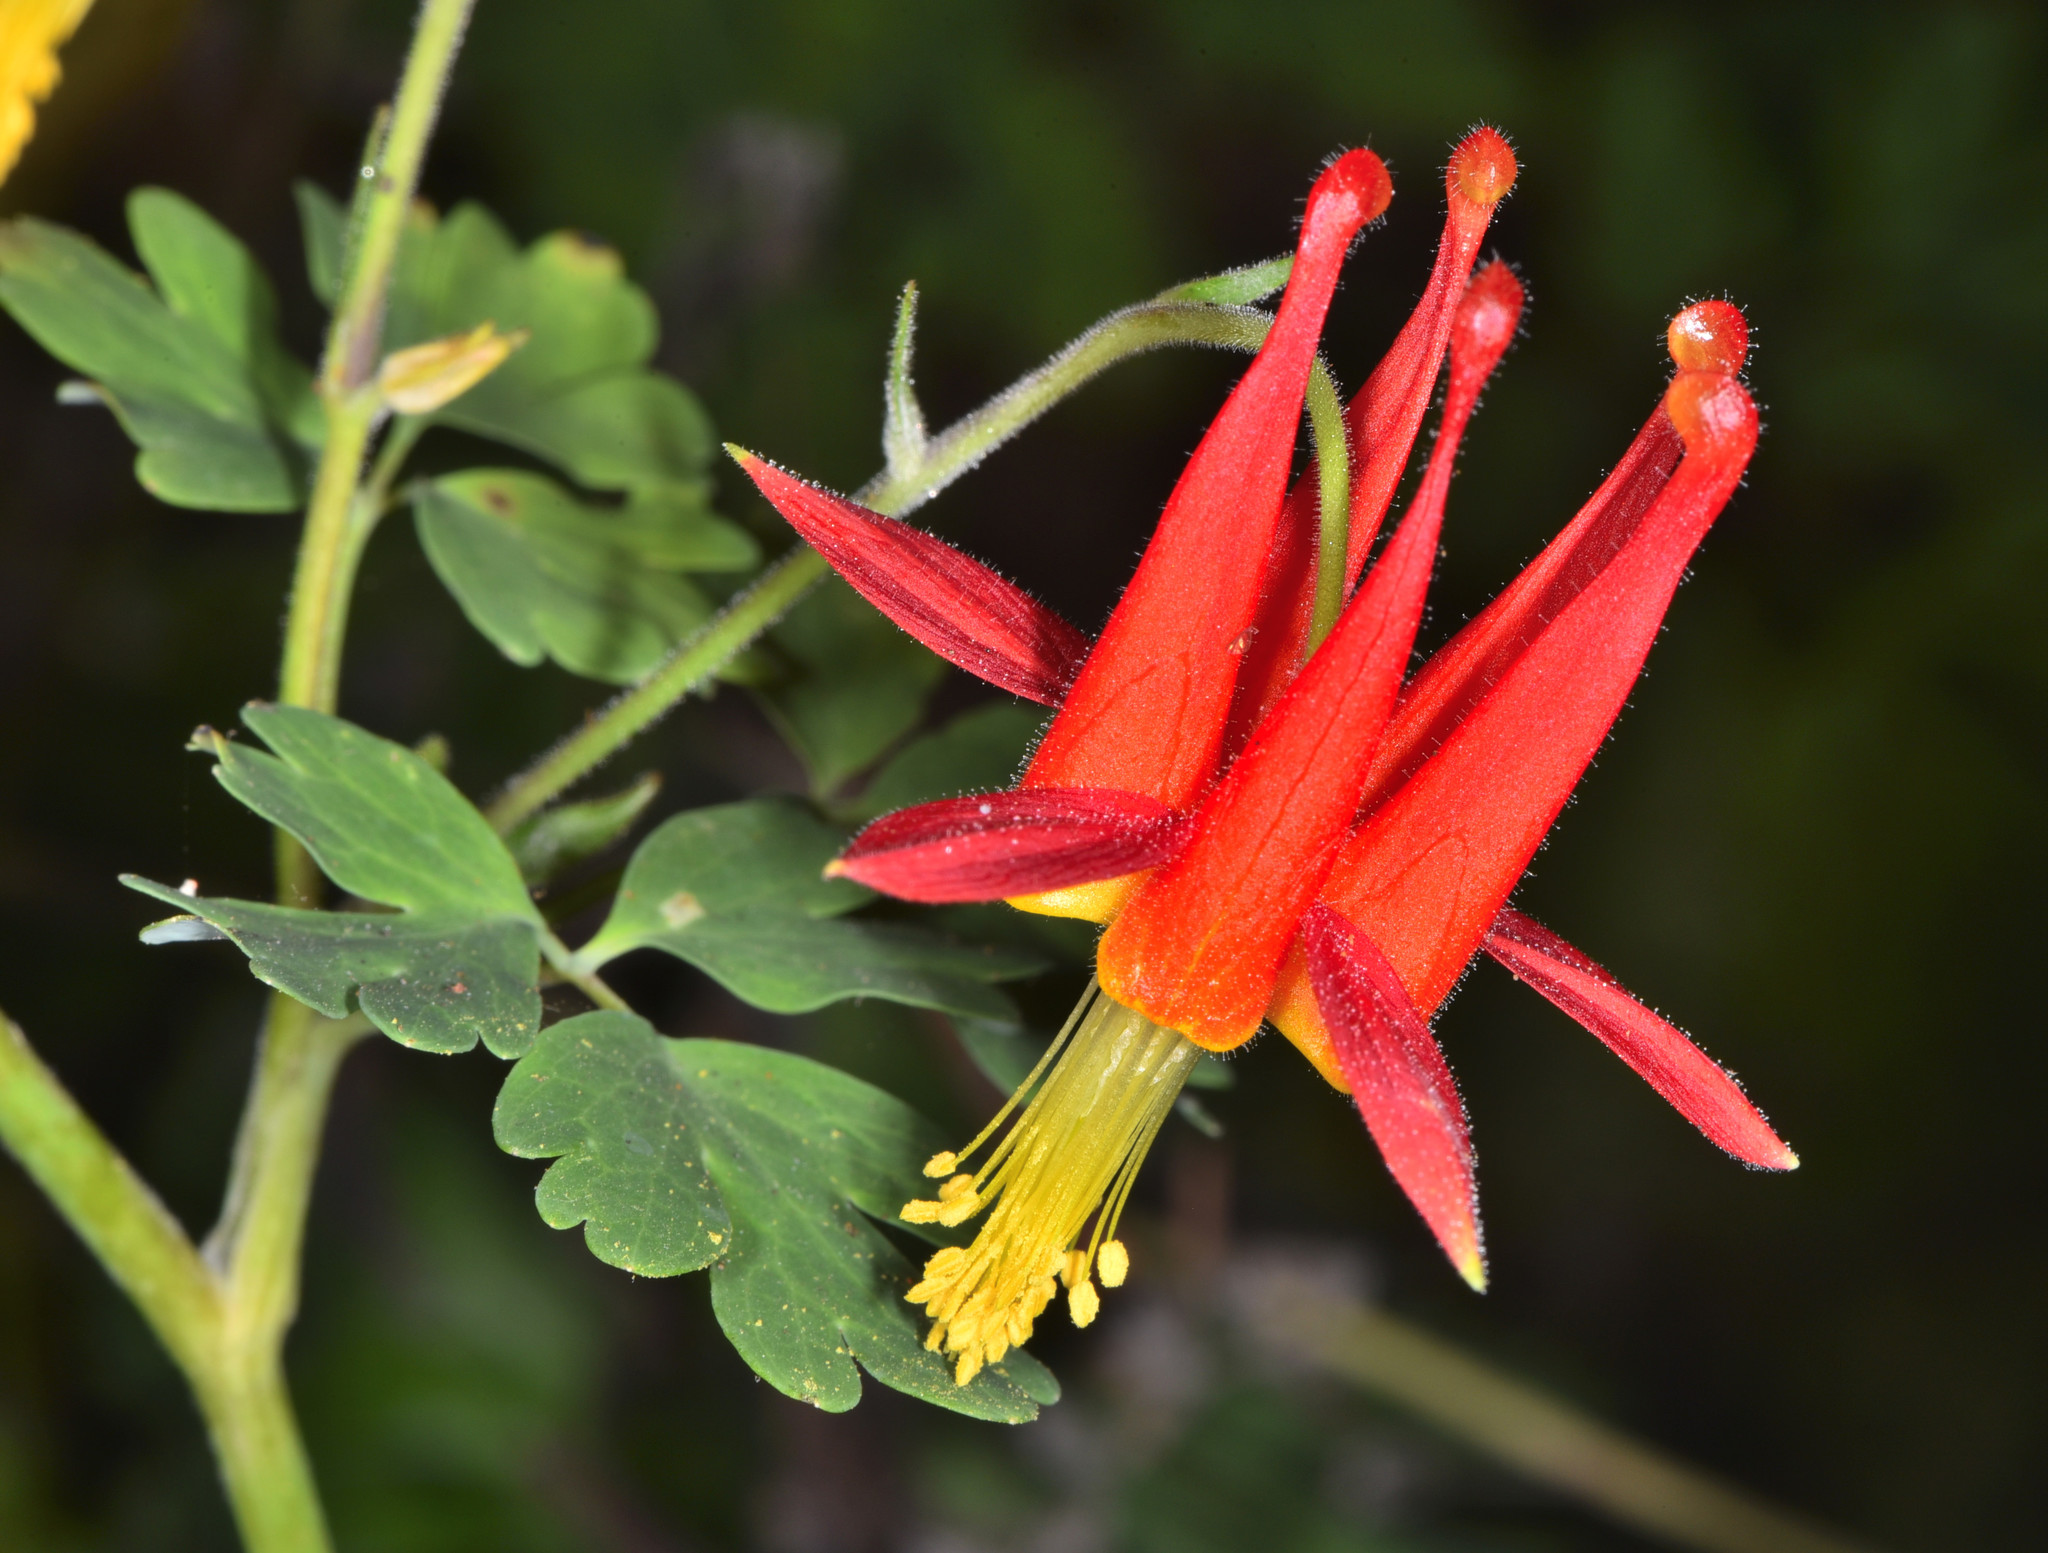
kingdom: Plantae
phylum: Tracheophyta
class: Magnoliopsida
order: Ranunculales
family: Ranunculaceae
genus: Aquilegia
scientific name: Aquilegia formosa
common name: Sitka columbine
